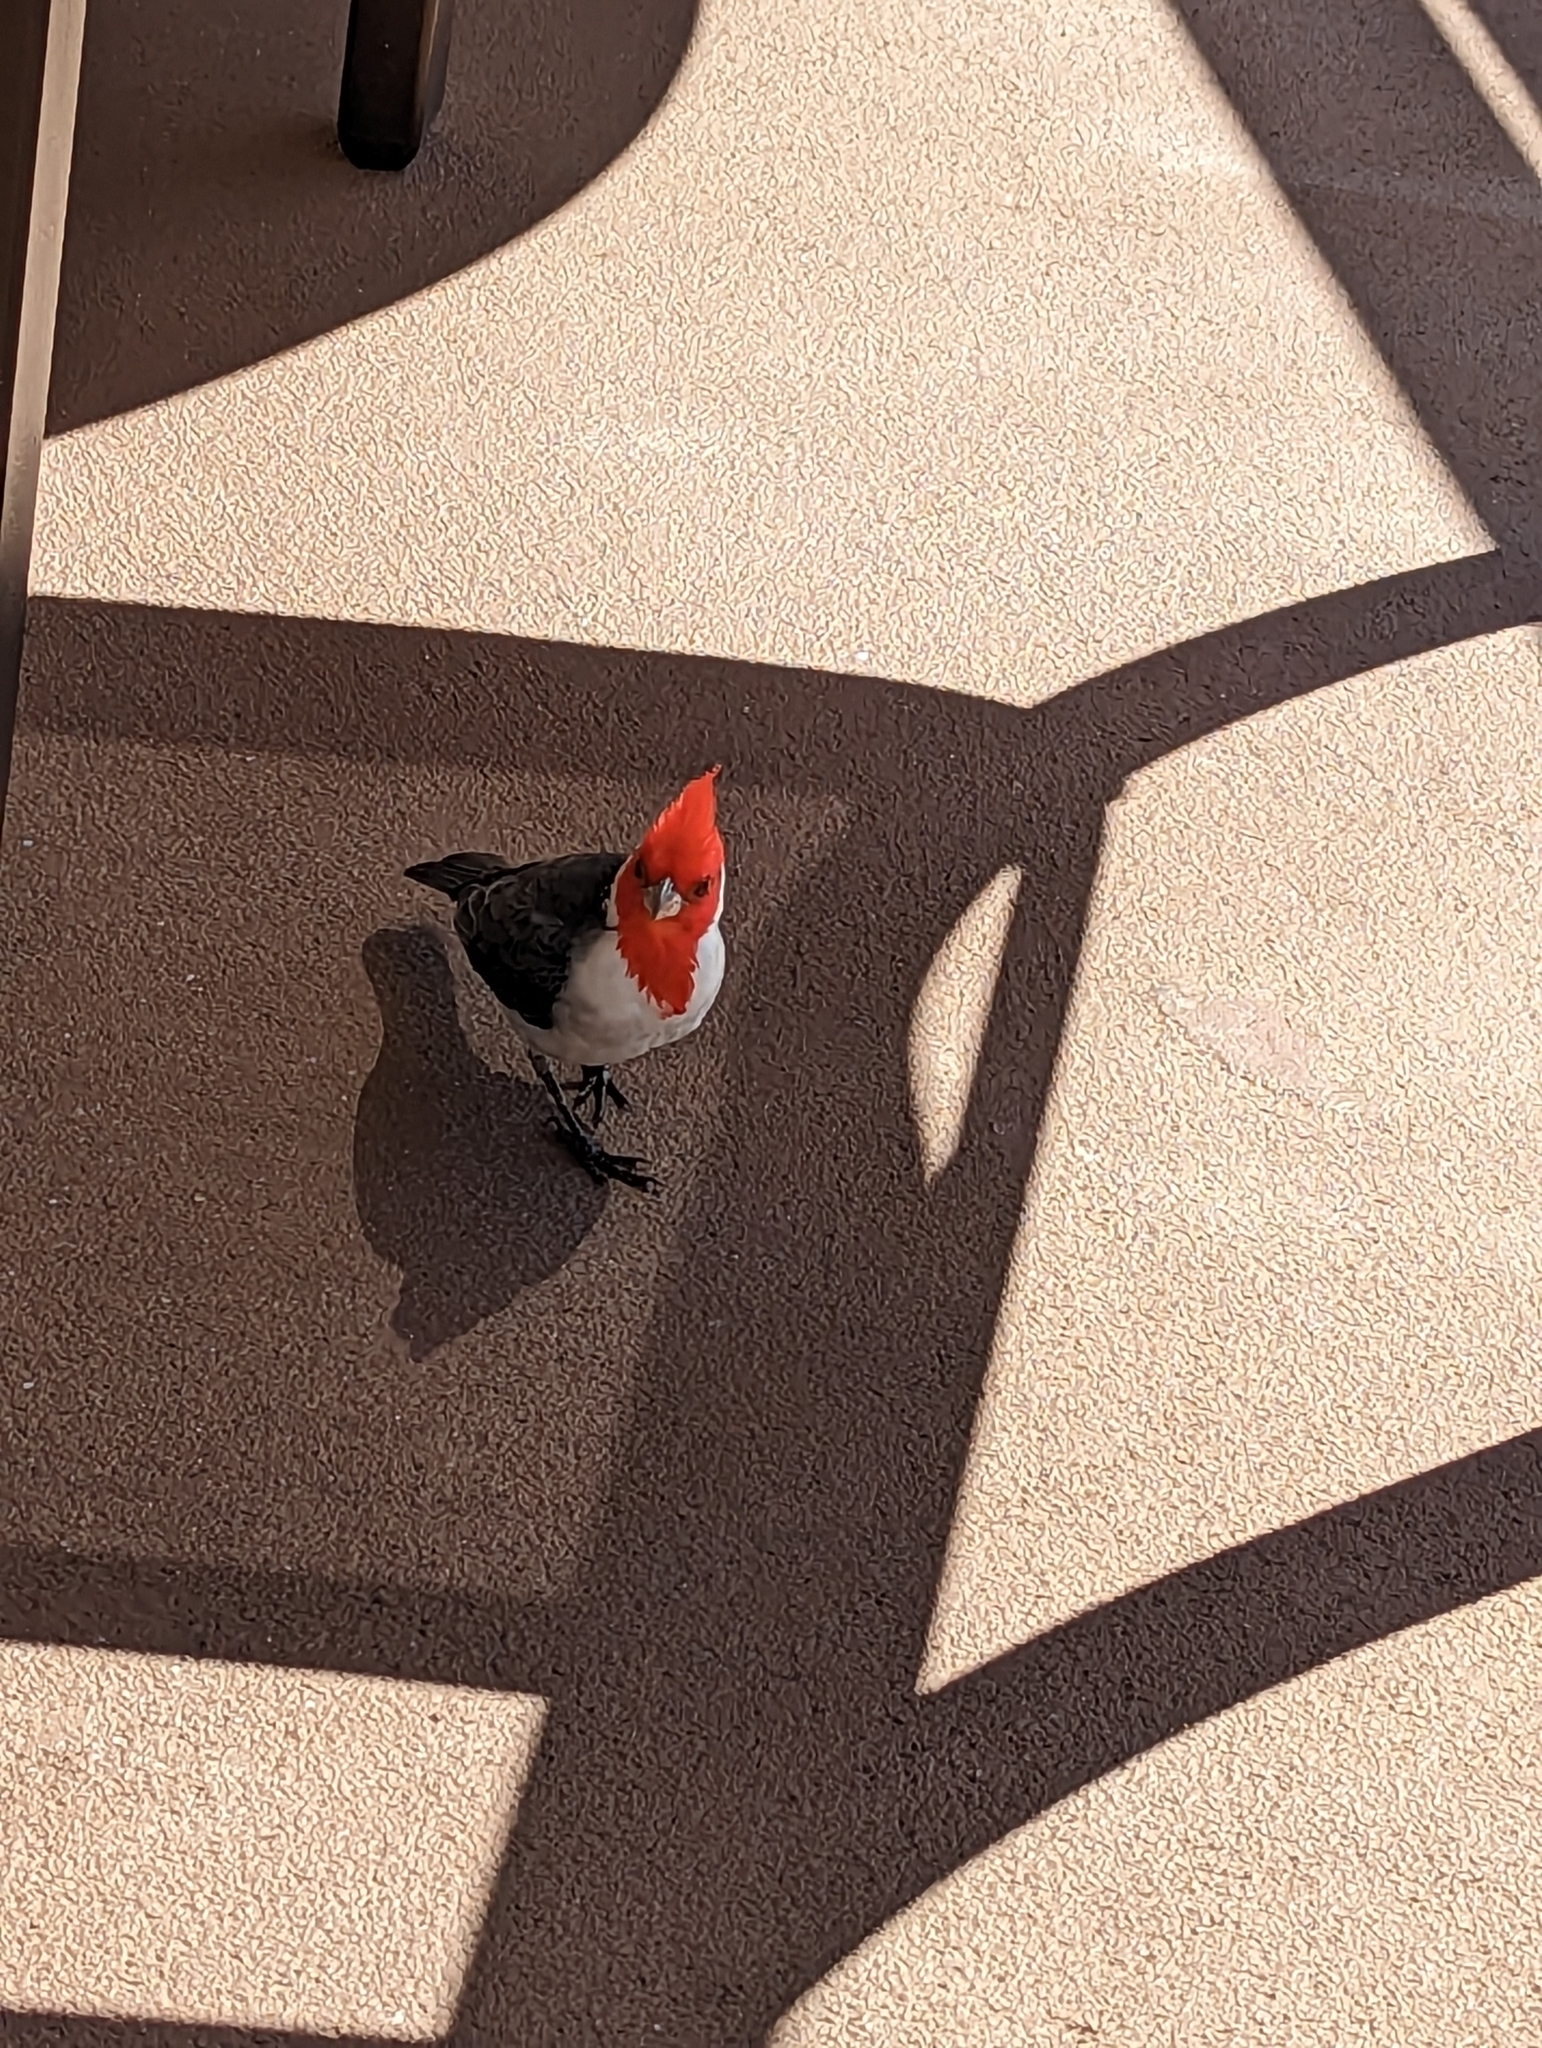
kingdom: Animalia
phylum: Chordata
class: Aves
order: Passeriformes
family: Thraupidae
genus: Paroaria
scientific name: Paroaria coronata
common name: Red-crested cardinal
